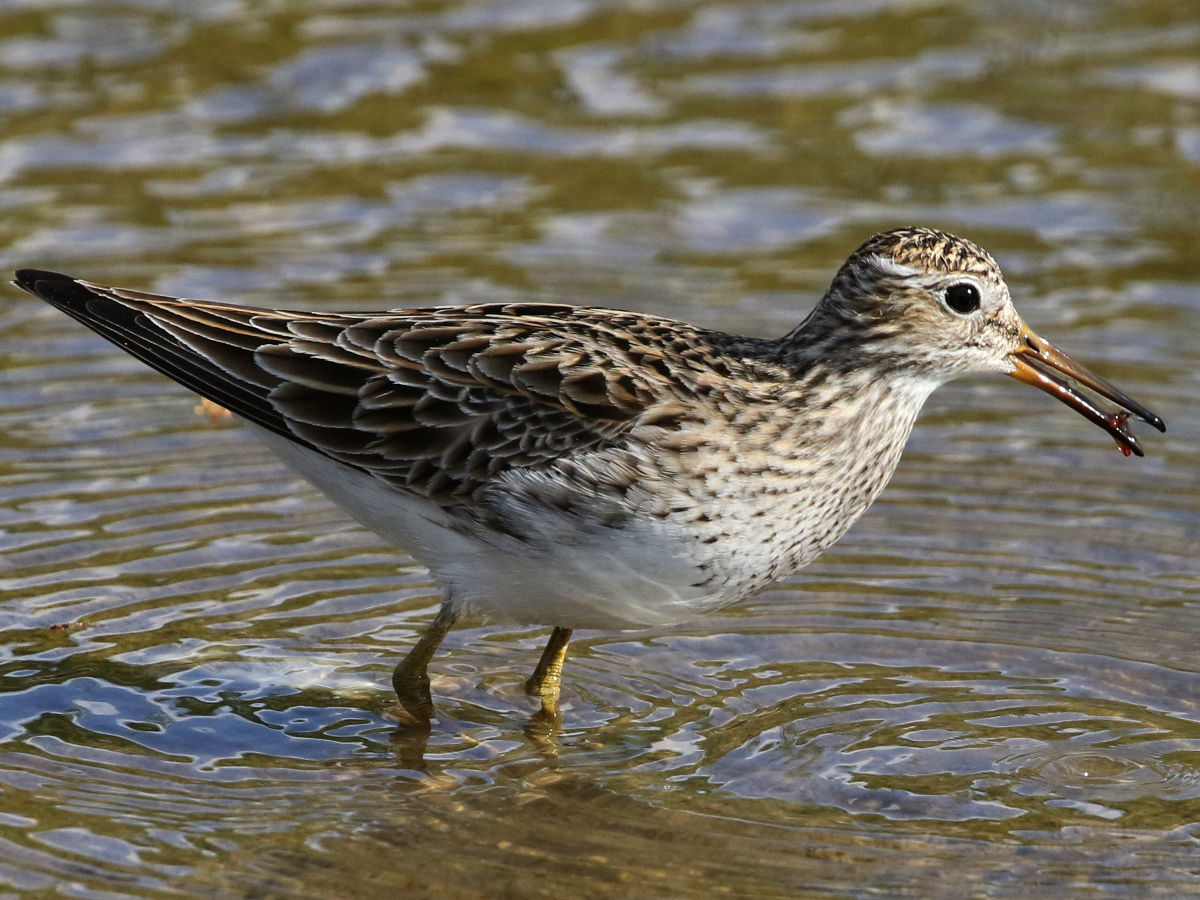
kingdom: Animalia
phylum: Chordata
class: Aves
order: Charadriiformes
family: Scolopacidae
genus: Calidris
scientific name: Calidris melanotos
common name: Pectoral sandpiper
